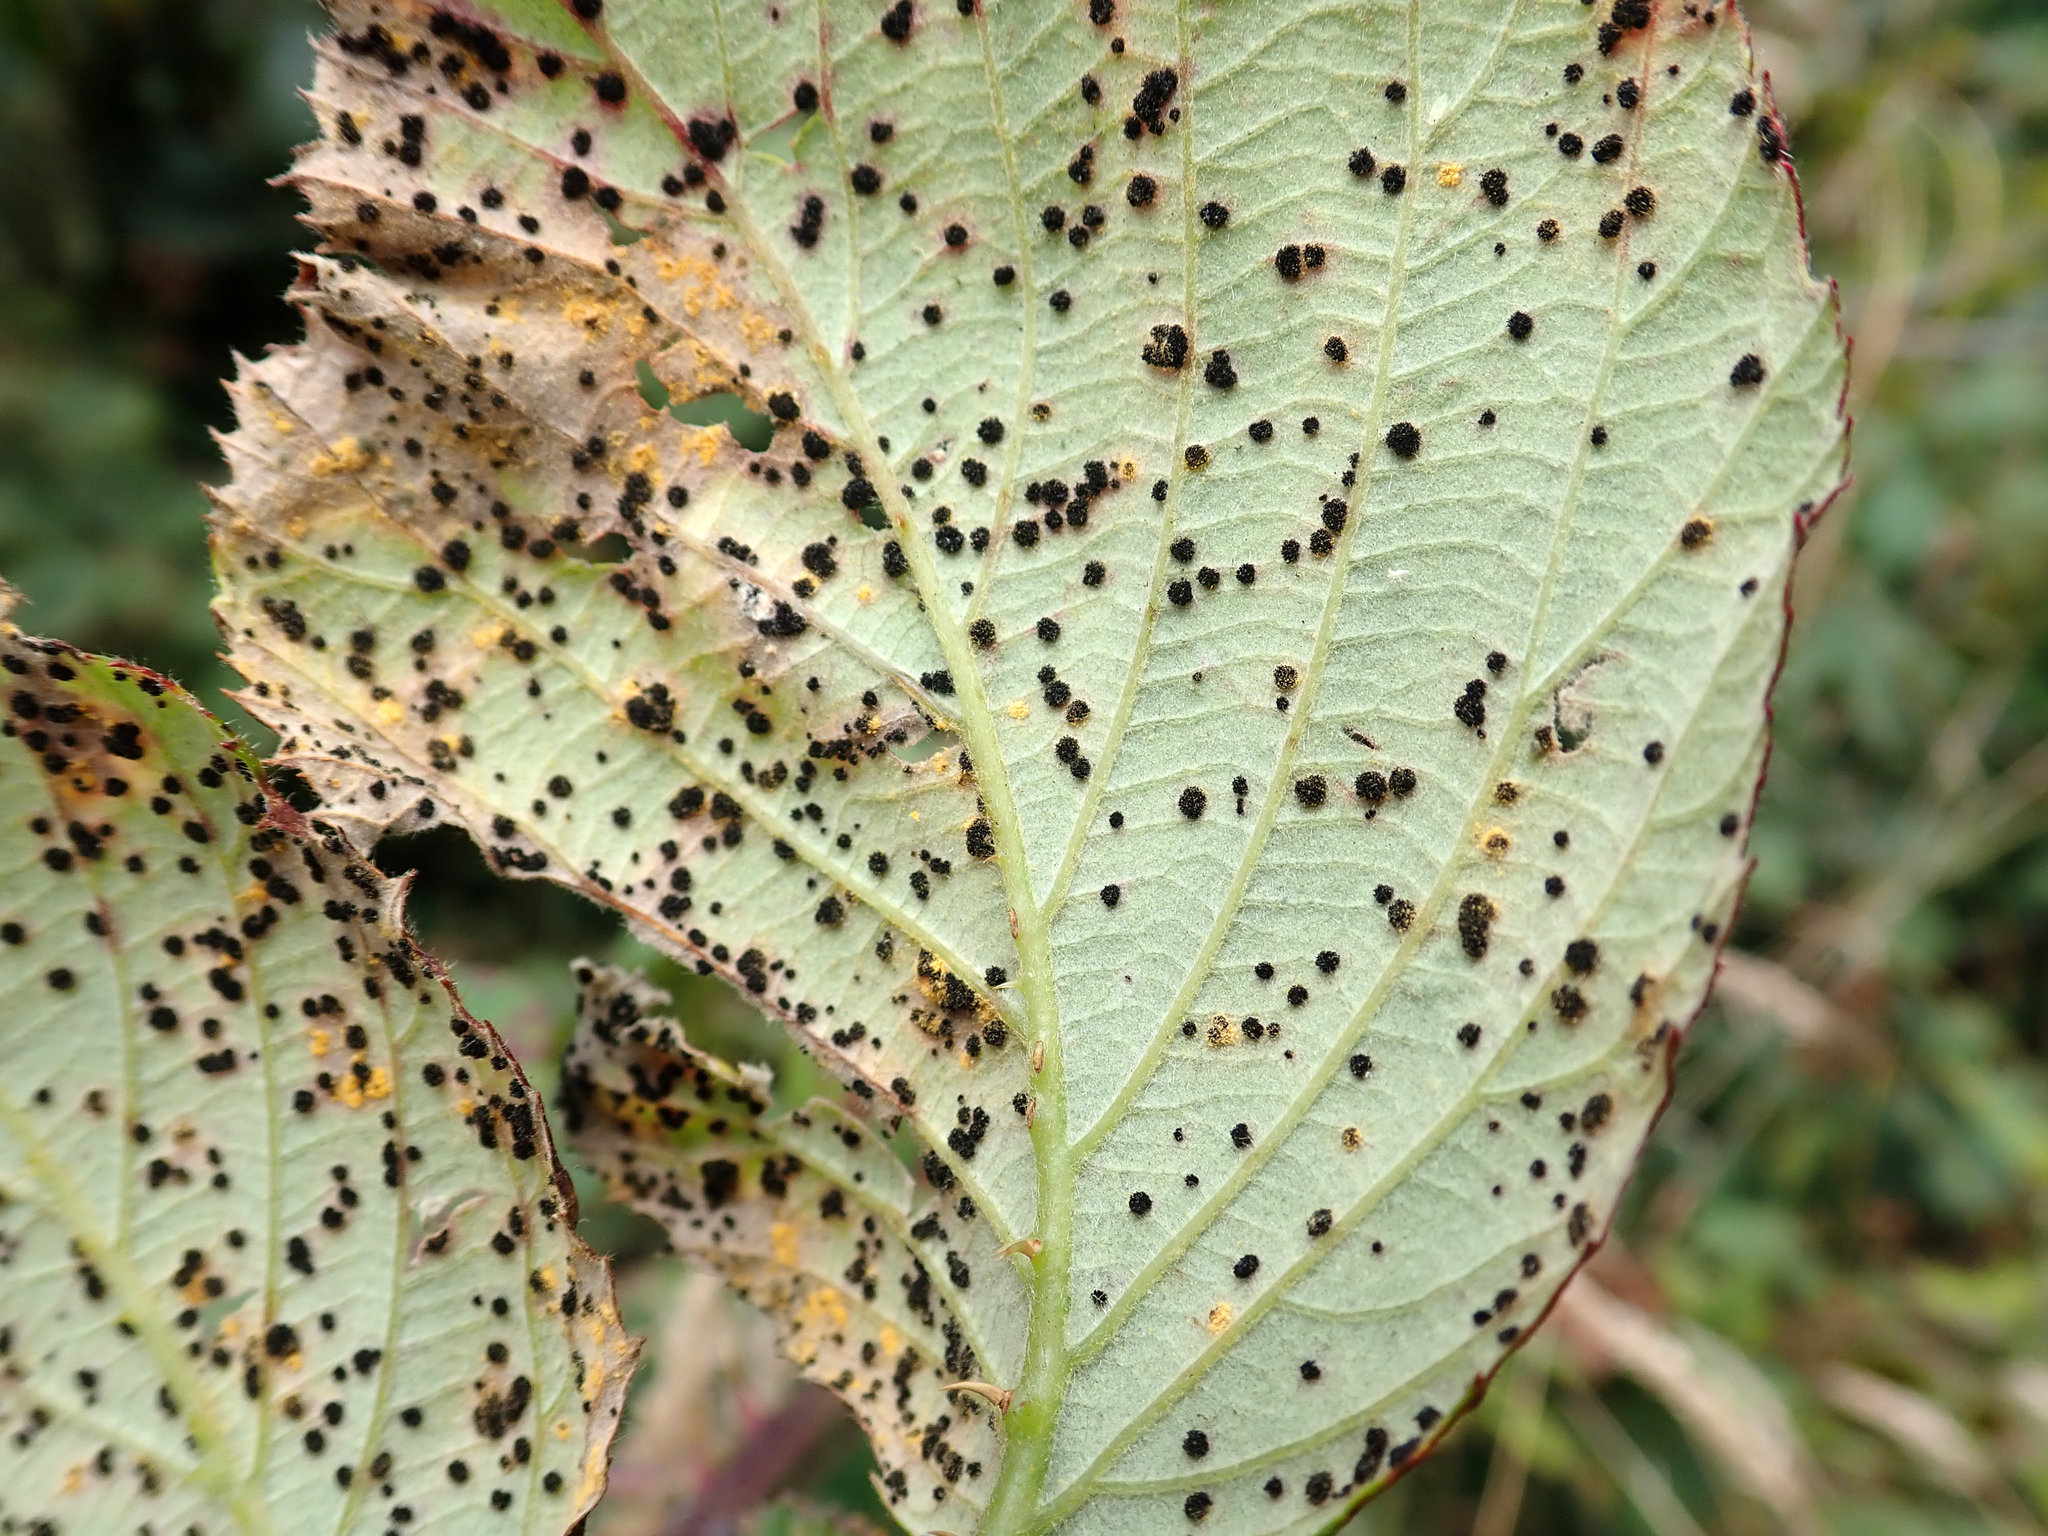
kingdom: Fungi
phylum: Basidiomycota
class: Pucciniomycetes
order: Pucciniales
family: Phragmidiaceae
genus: Phragmidium
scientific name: Phragmidium violaceum
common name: Violet bramble rust
